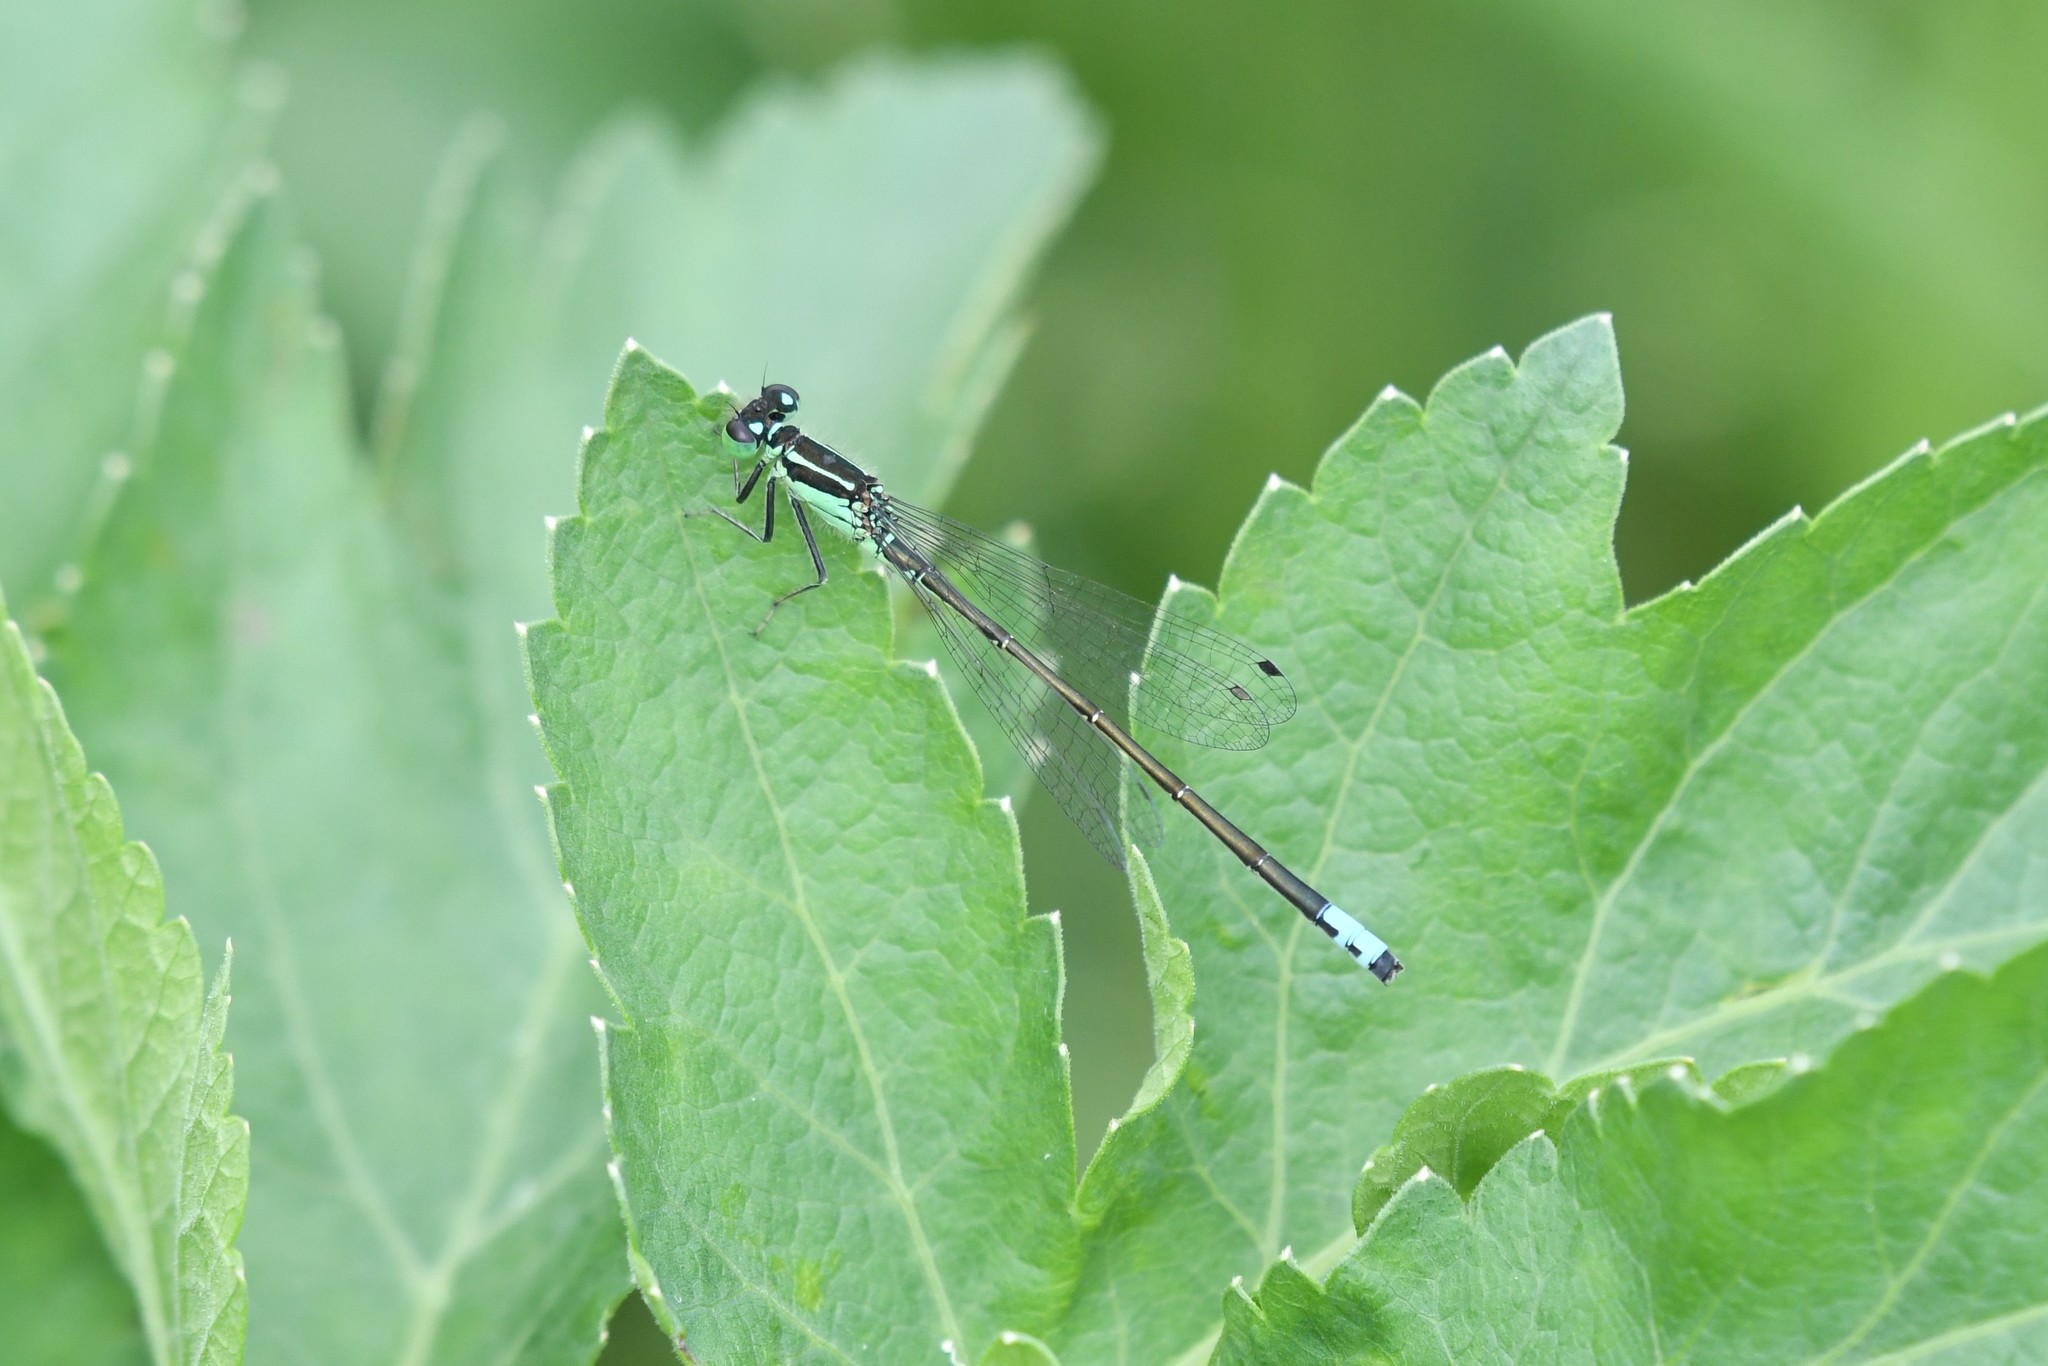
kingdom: Animalia
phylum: Arthropoda
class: Insecta
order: Odonata
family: Coenagrionidae
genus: Ischnura
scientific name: Ischnura verticalis
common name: Eastern forktail
